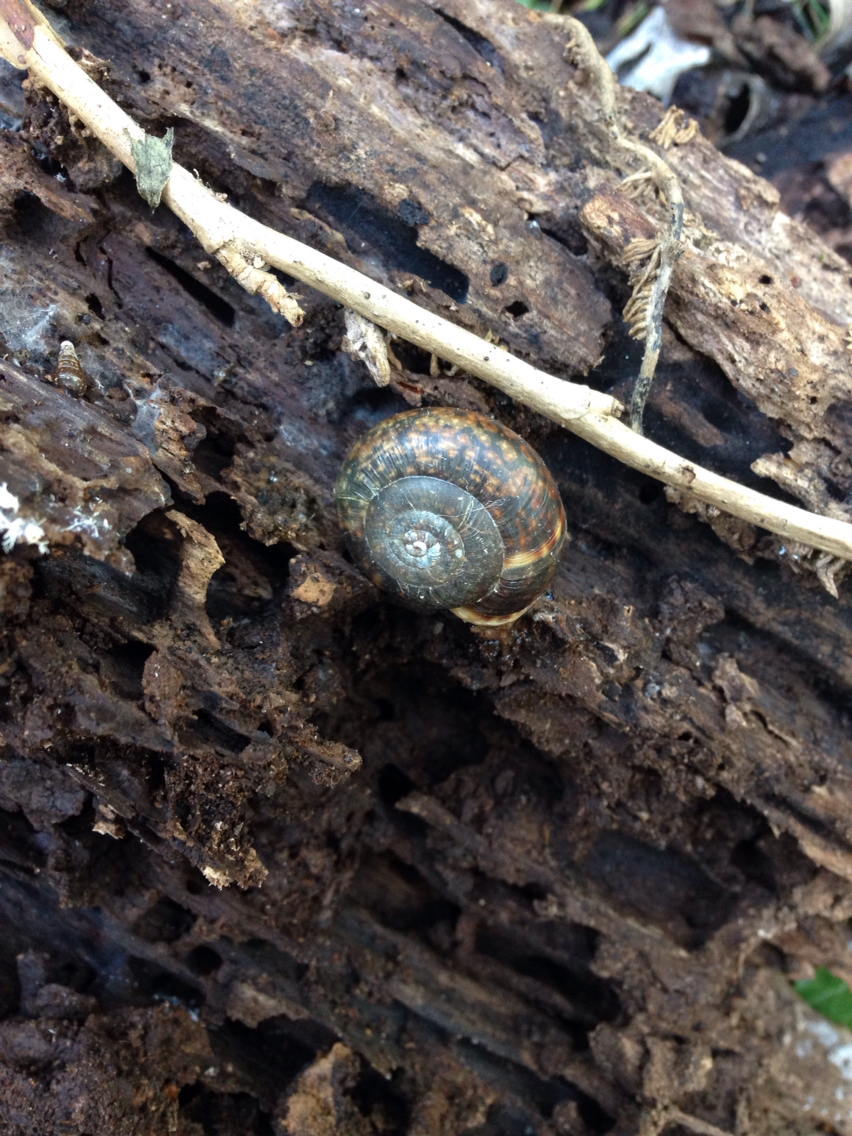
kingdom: Animalia
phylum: Mollusca
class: Gastropoda
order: Stylommatophora
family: Helicidae
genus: Campylaea
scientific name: Campylaea planospira
